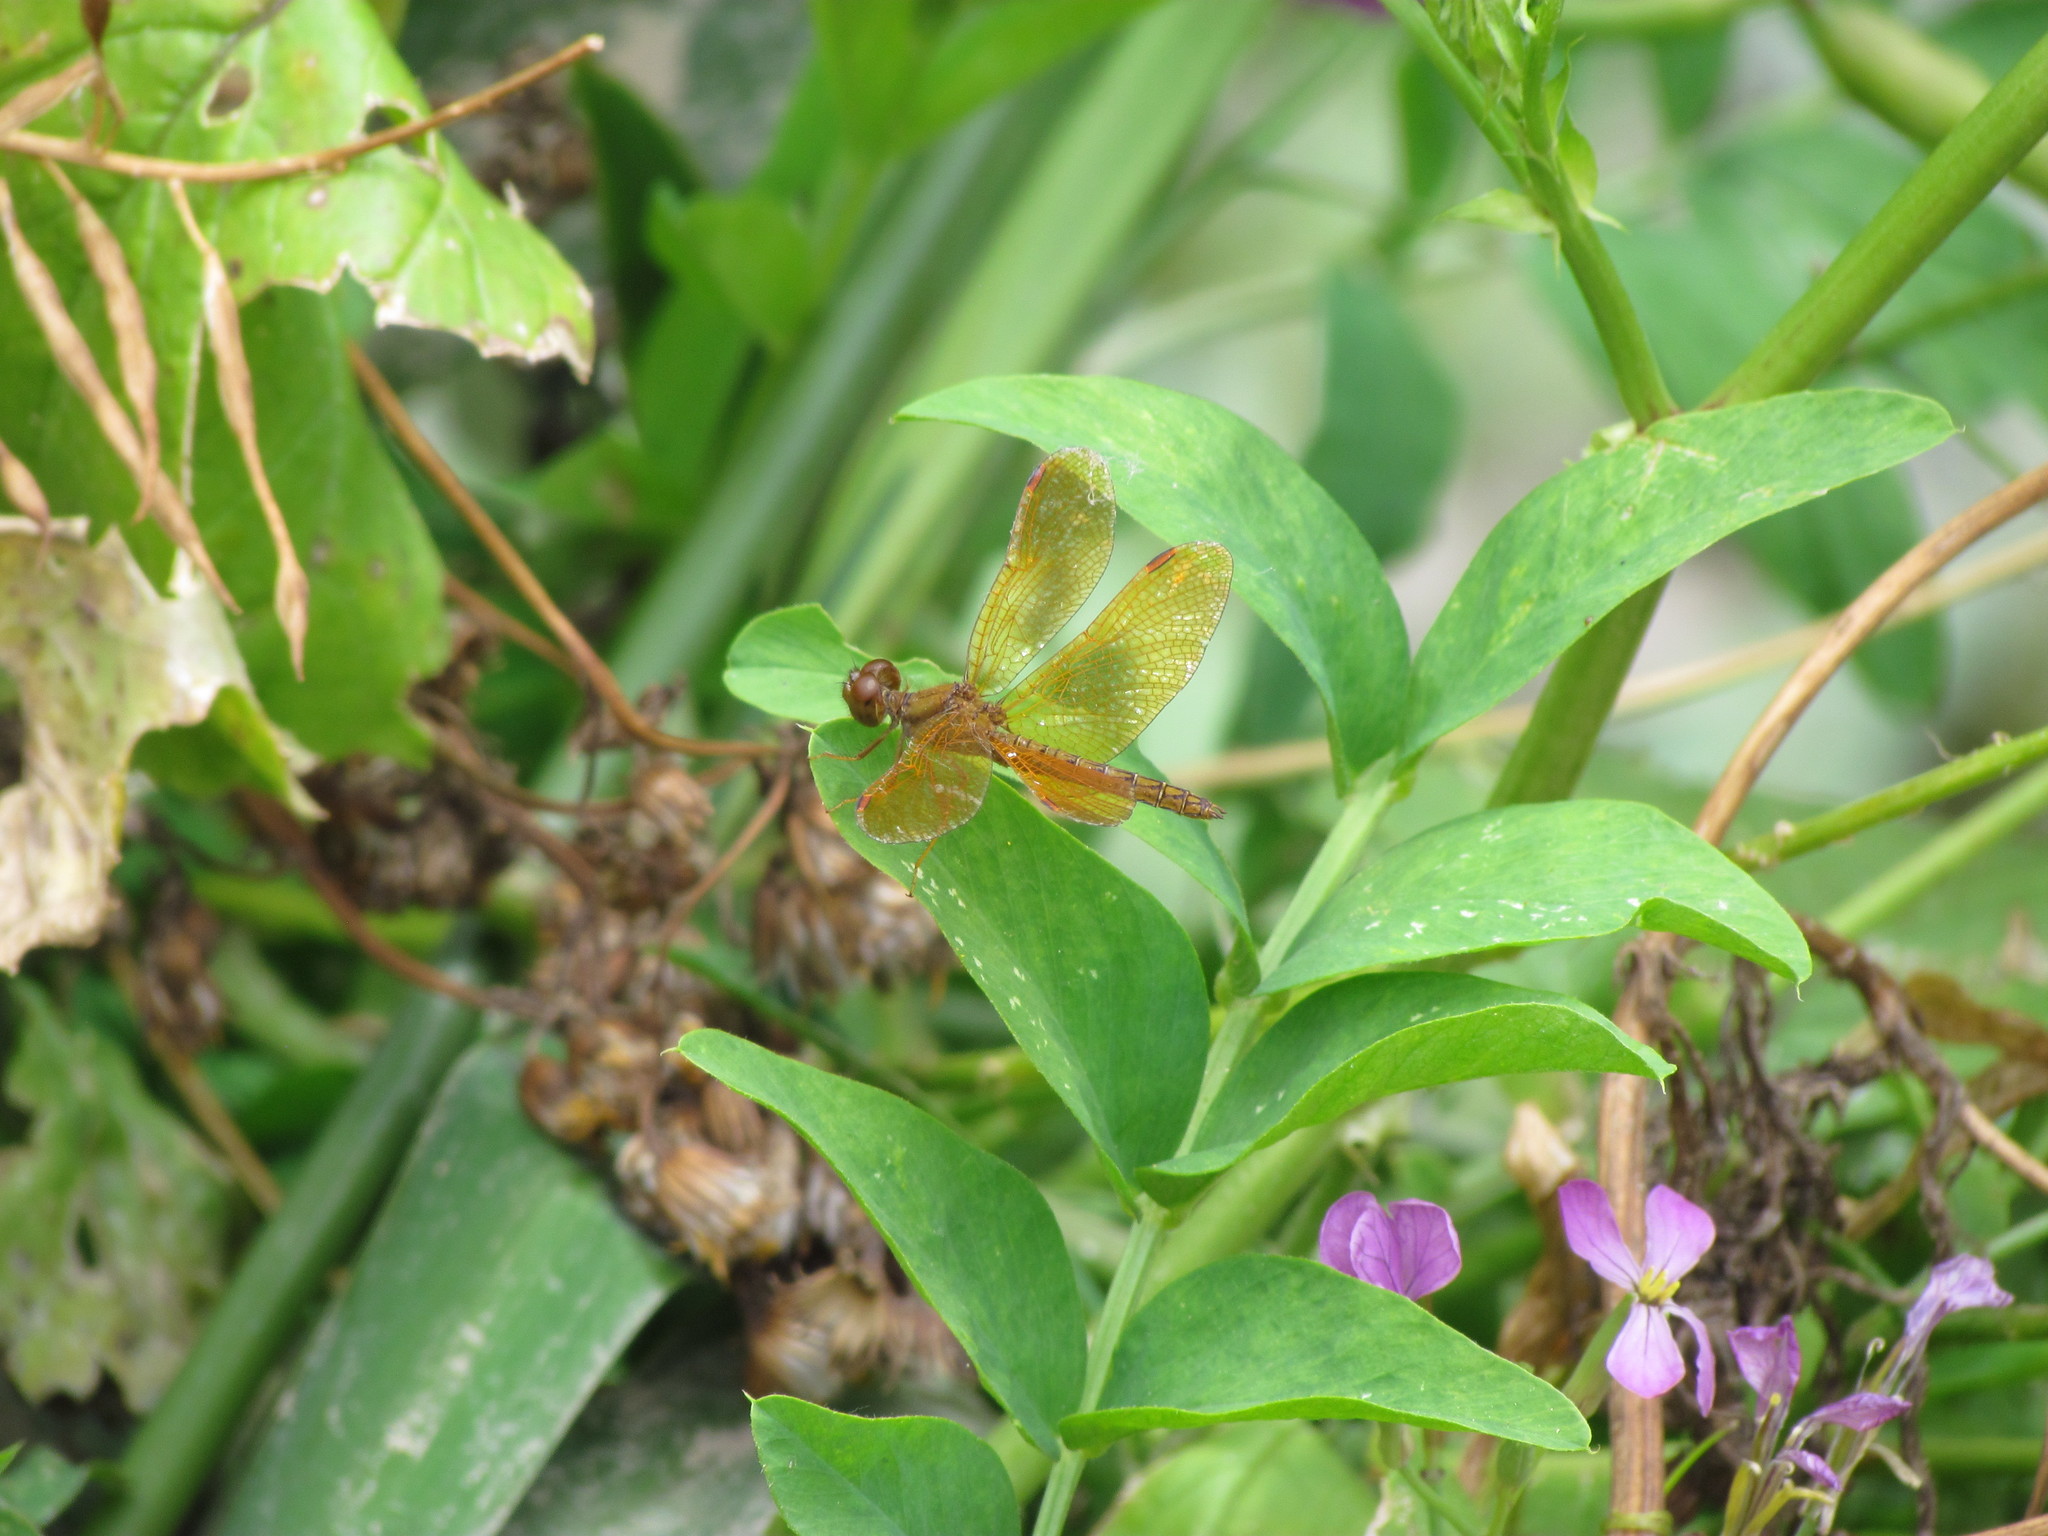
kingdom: Animalia
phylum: Arthropoda
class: Insecta
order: Odonata
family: Libellulidae
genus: Perithemis
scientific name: Perithemis icteroptera
